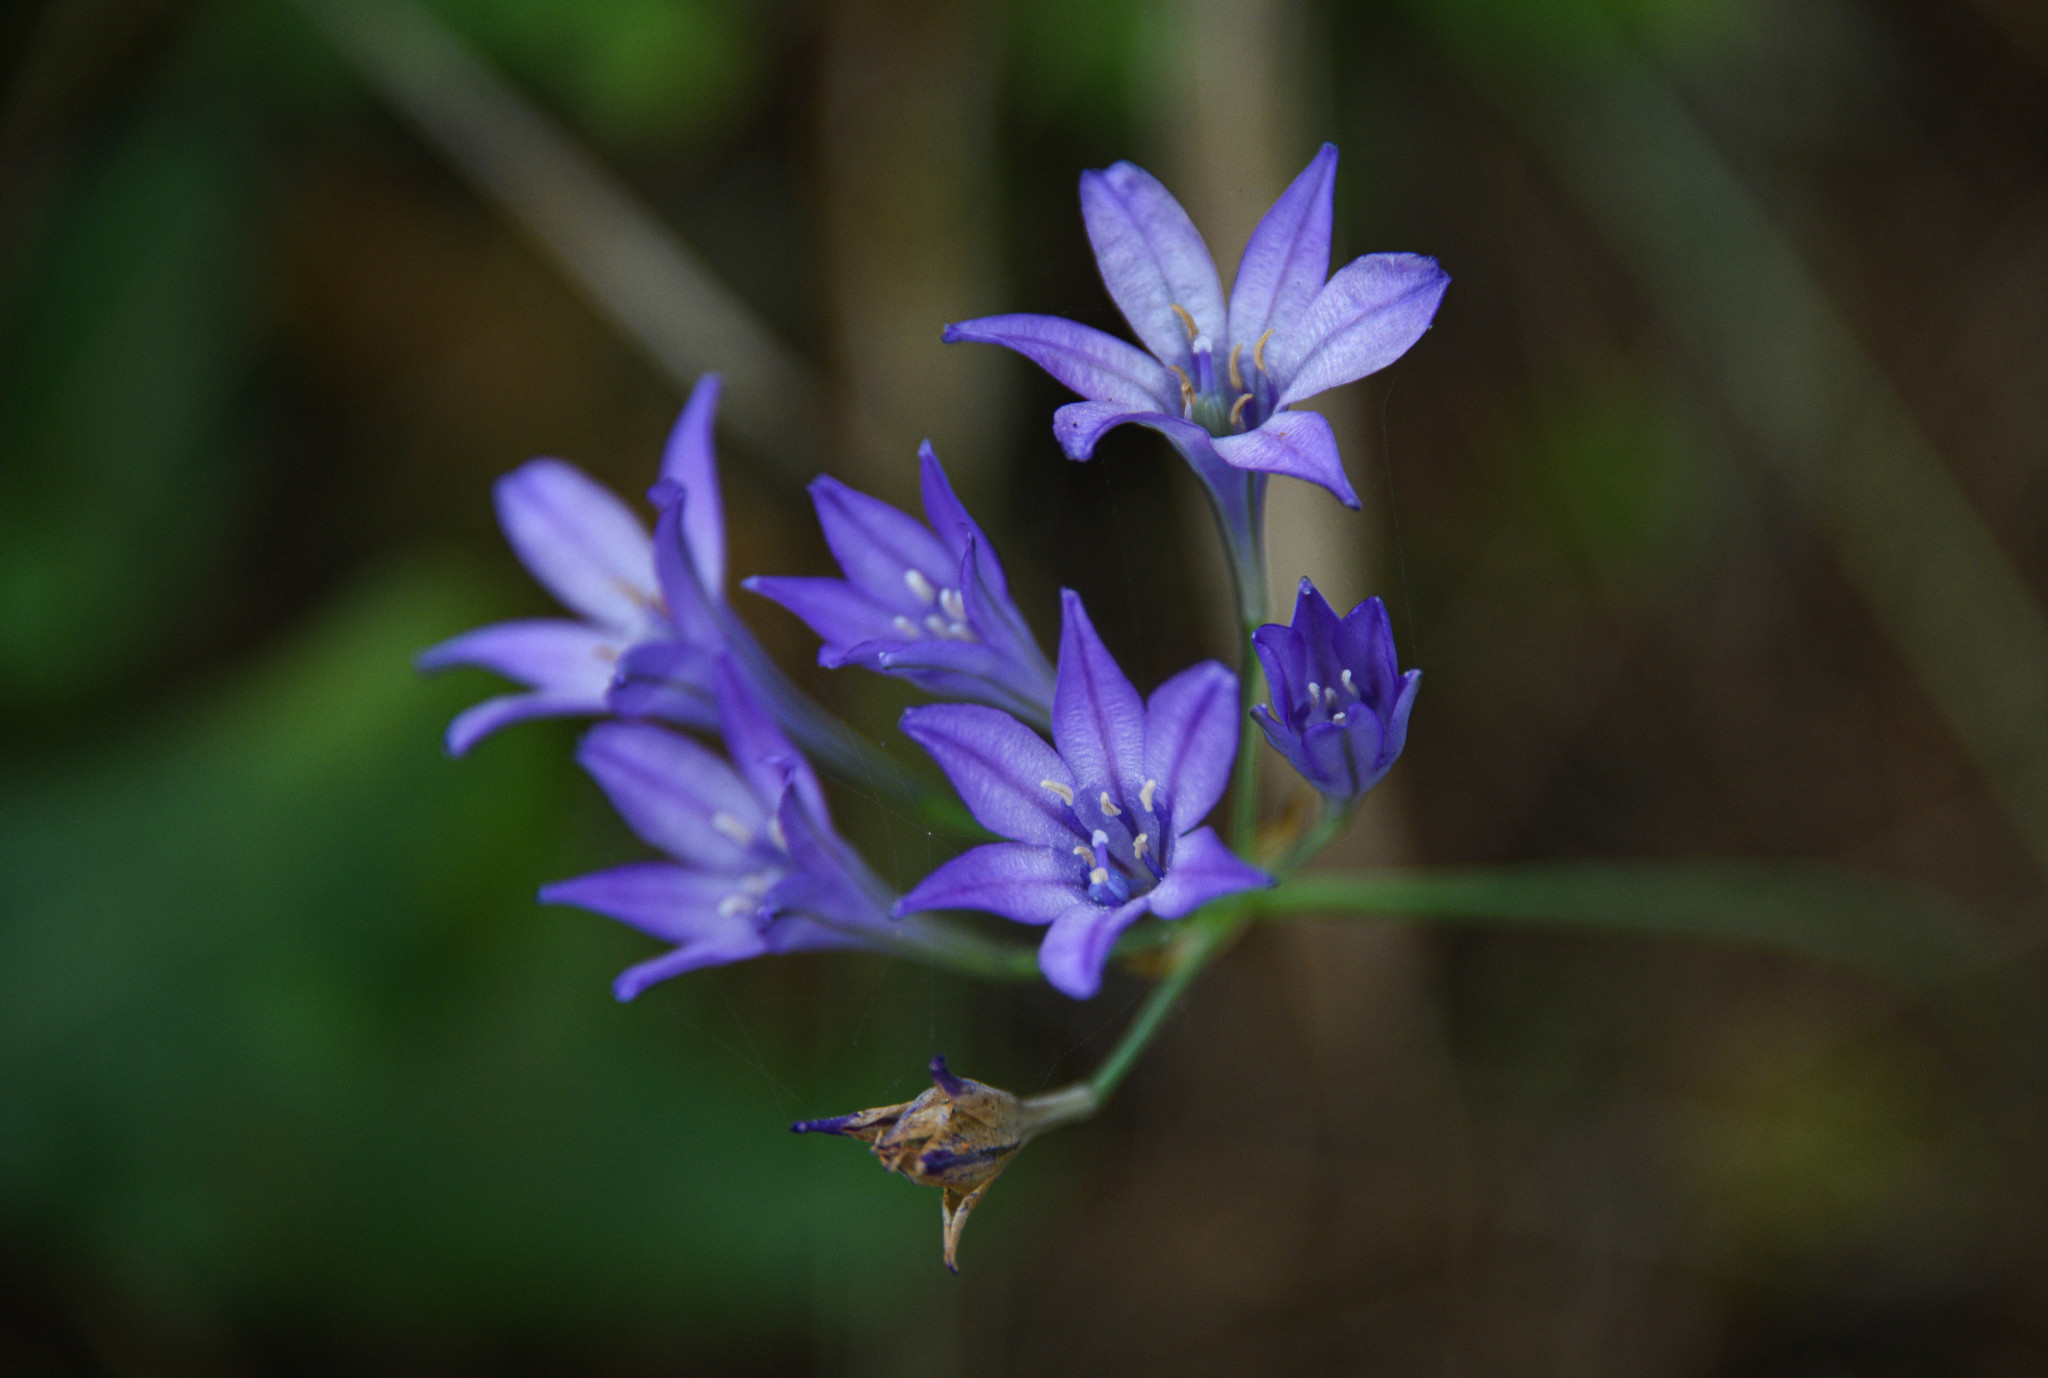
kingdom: Plantae
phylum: Tracheophyta
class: Liliopsida
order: Asparagales
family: Asparagaceae
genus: Triteleia
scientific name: Triteleia laxa
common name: Triplet-lily
